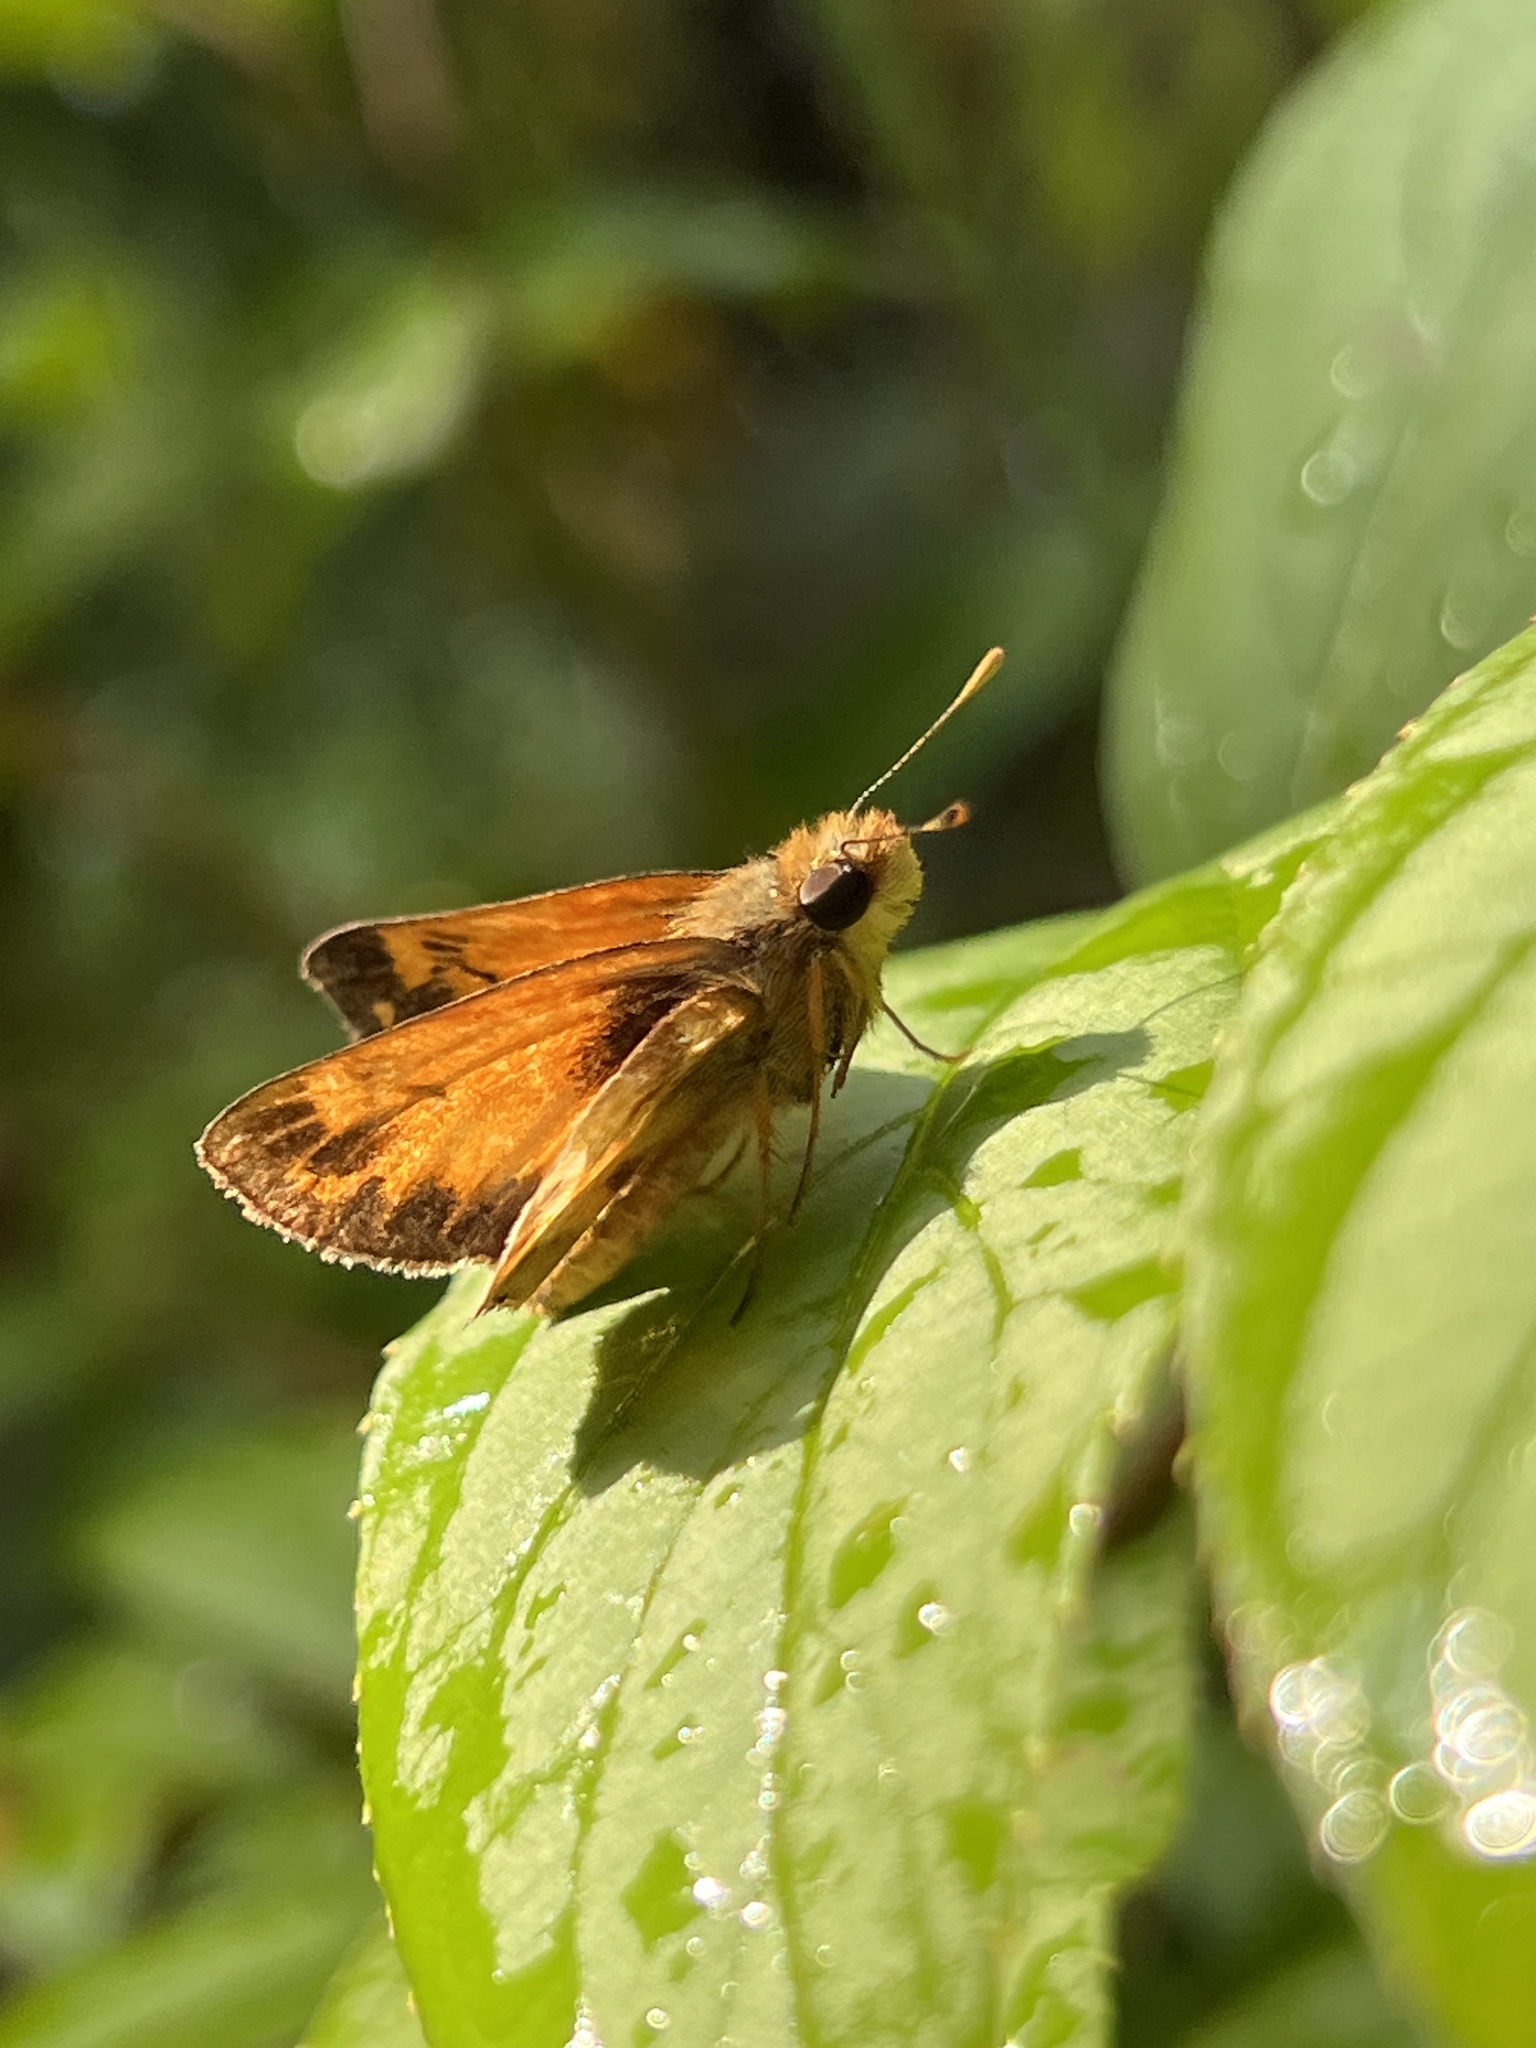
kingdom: Animalia
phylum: Arthropoda
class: Insecta
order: Lepidoptera
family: Hesperiidae
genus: Lon
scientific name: Lon zabulon
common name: Zabulon skipper
